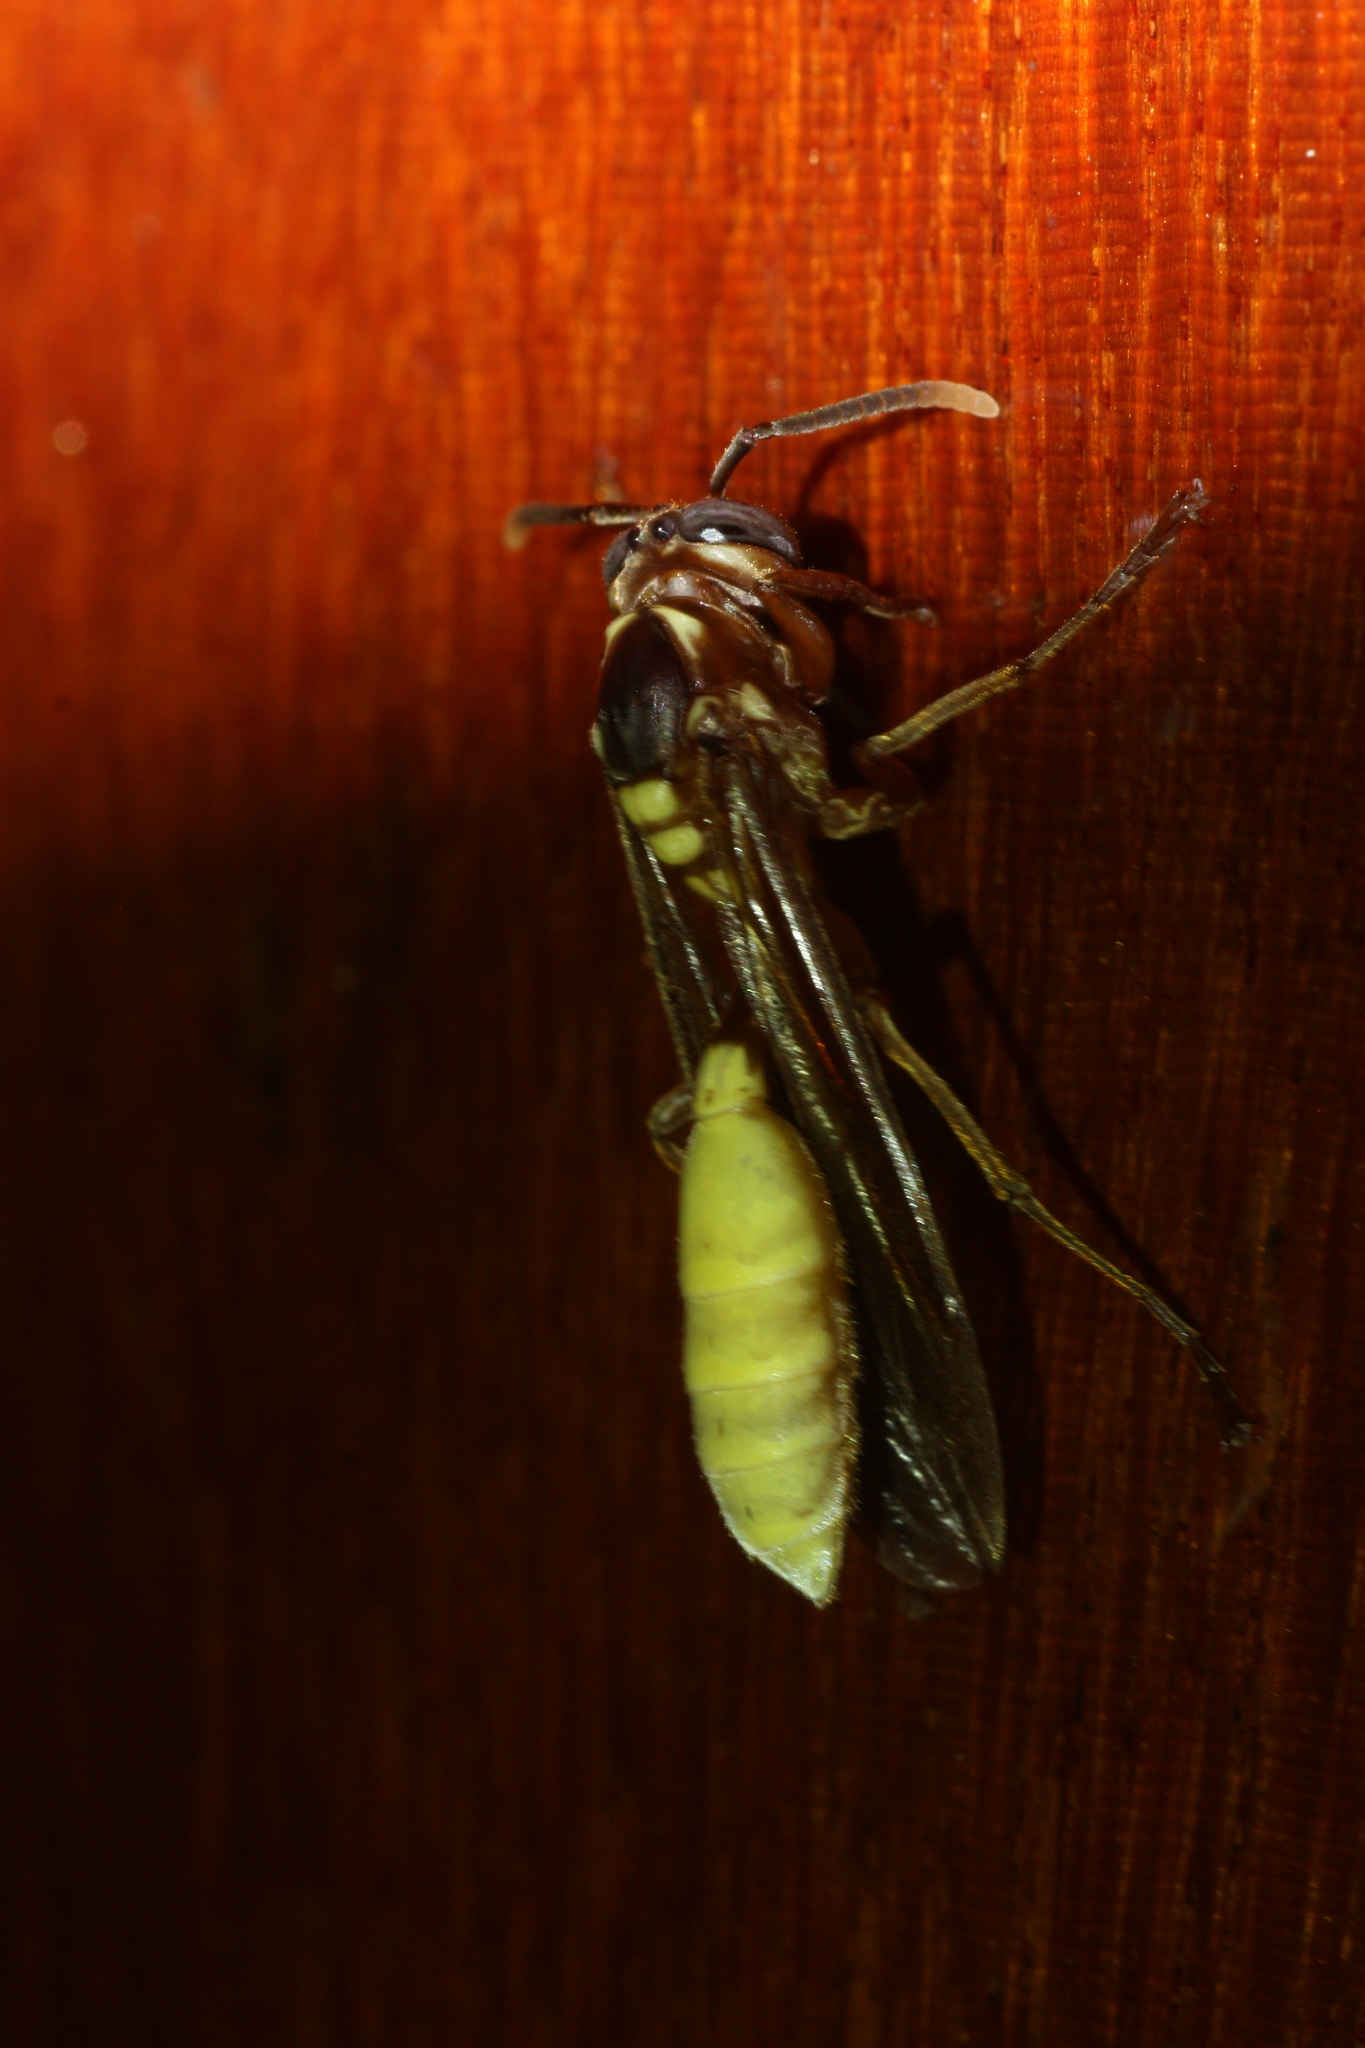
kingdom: Animalia
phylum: Arthropoda
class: Insecta
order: Hymenoptera
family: Vespidae
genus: Apoica
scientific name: Apoica pallens
